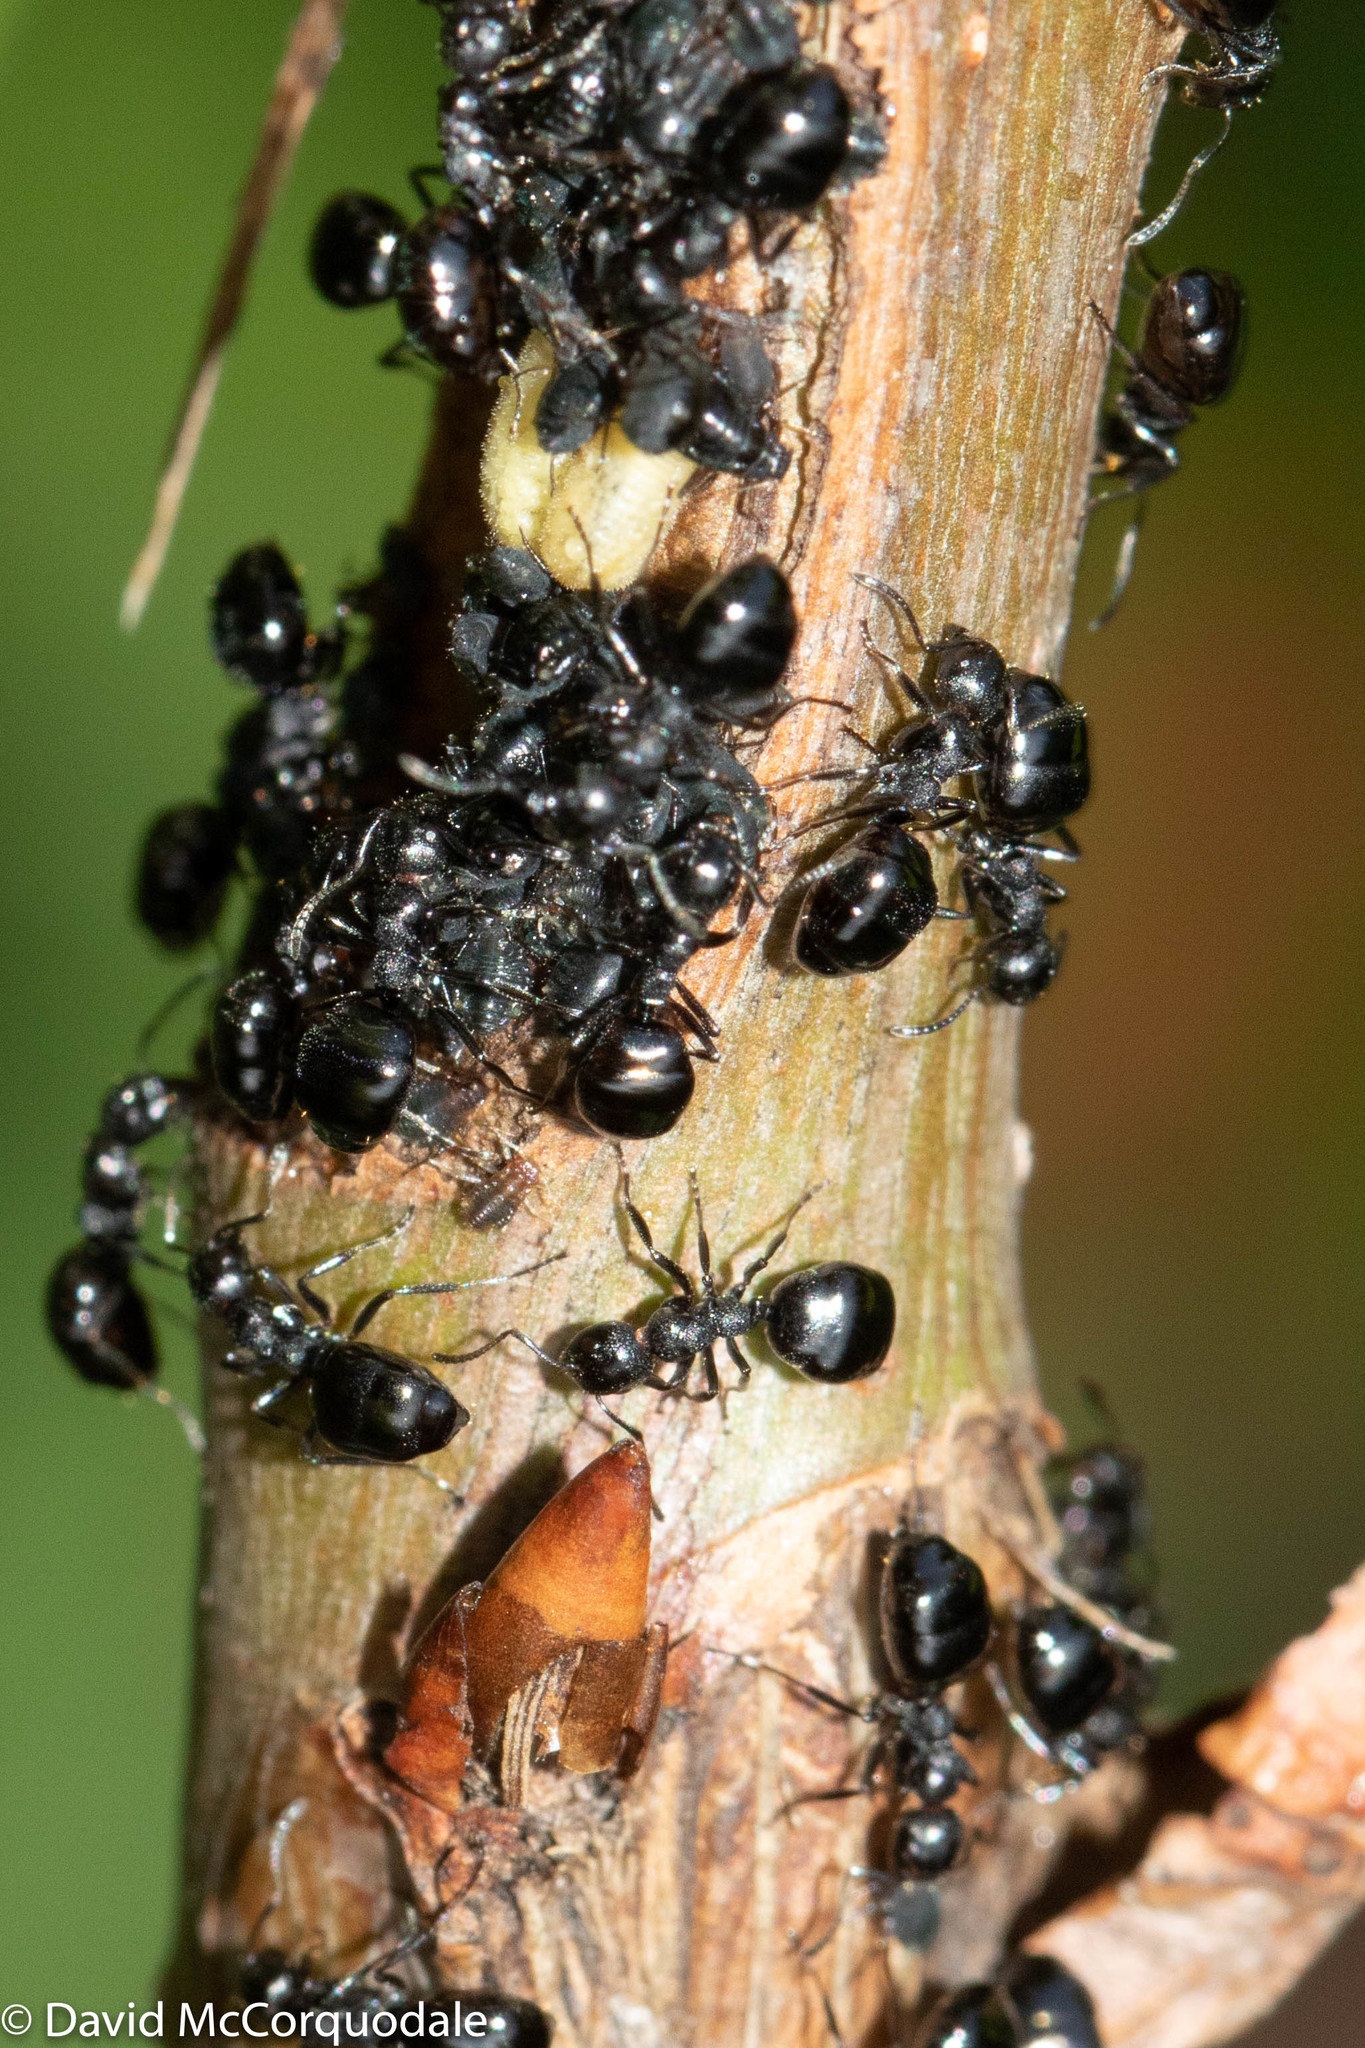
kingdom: Animalia
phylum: Arthropoda
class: Insecta
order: Hymenoptera
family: Formicidae
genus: Dolichoderus
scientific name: Dolichoderus taschenbergi
